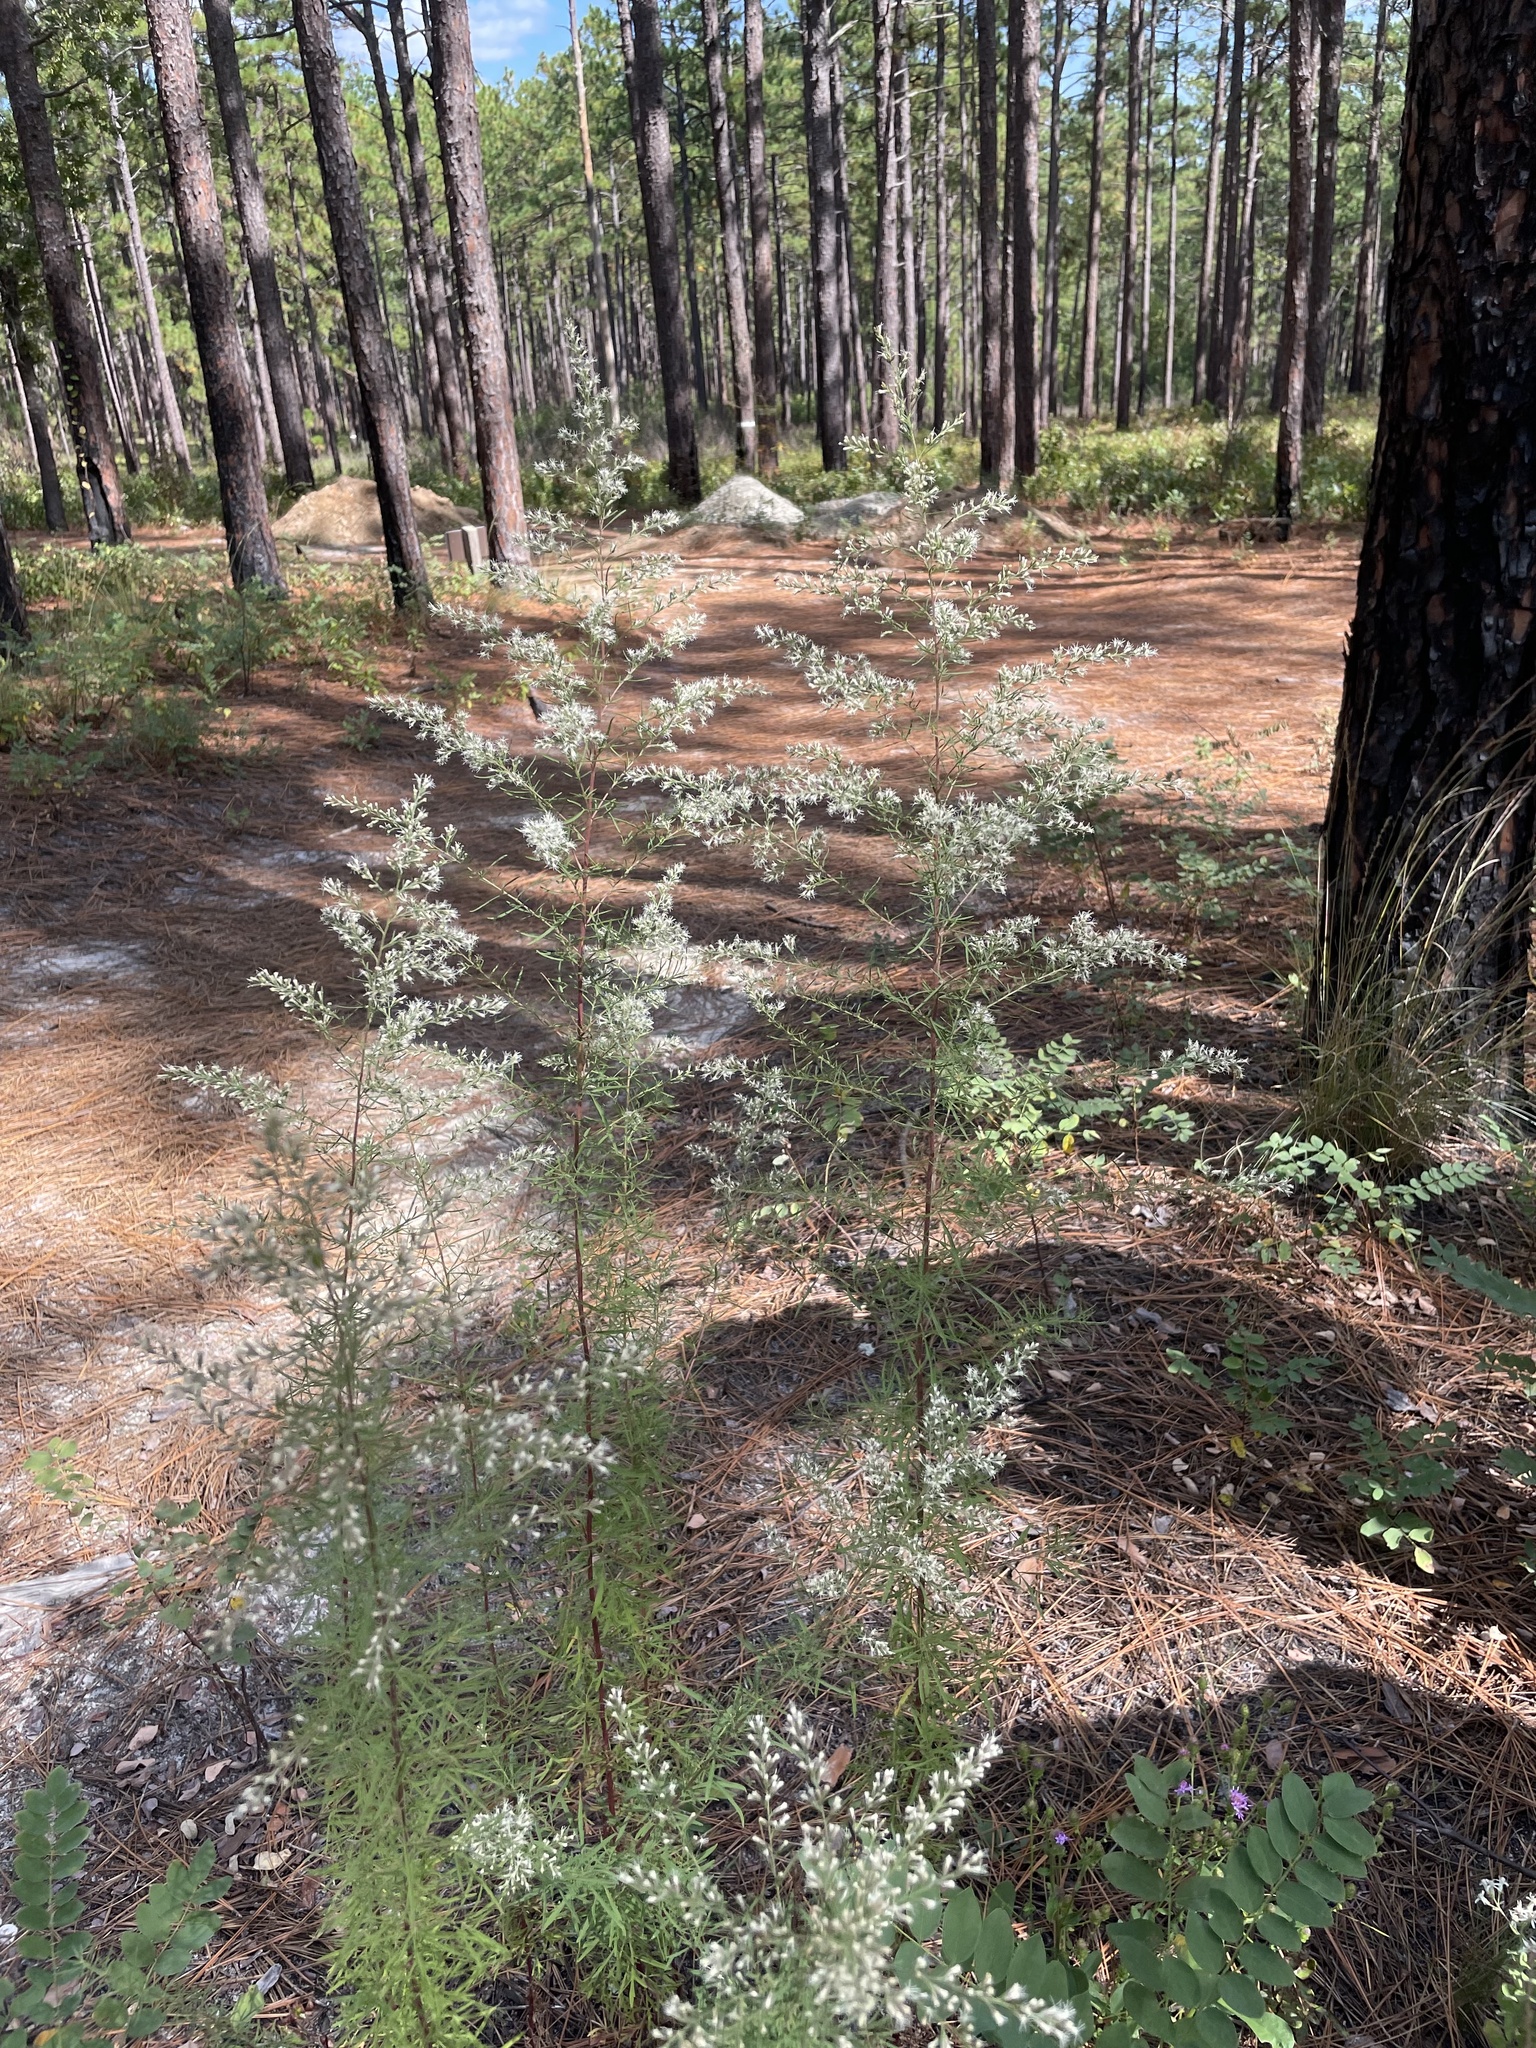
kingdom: Plantae
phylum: Tracheophyta
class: Magnoliopsida
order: Asterales
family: Asteraceae
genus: Eupatorium
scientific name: Eupatorium compositifolium
